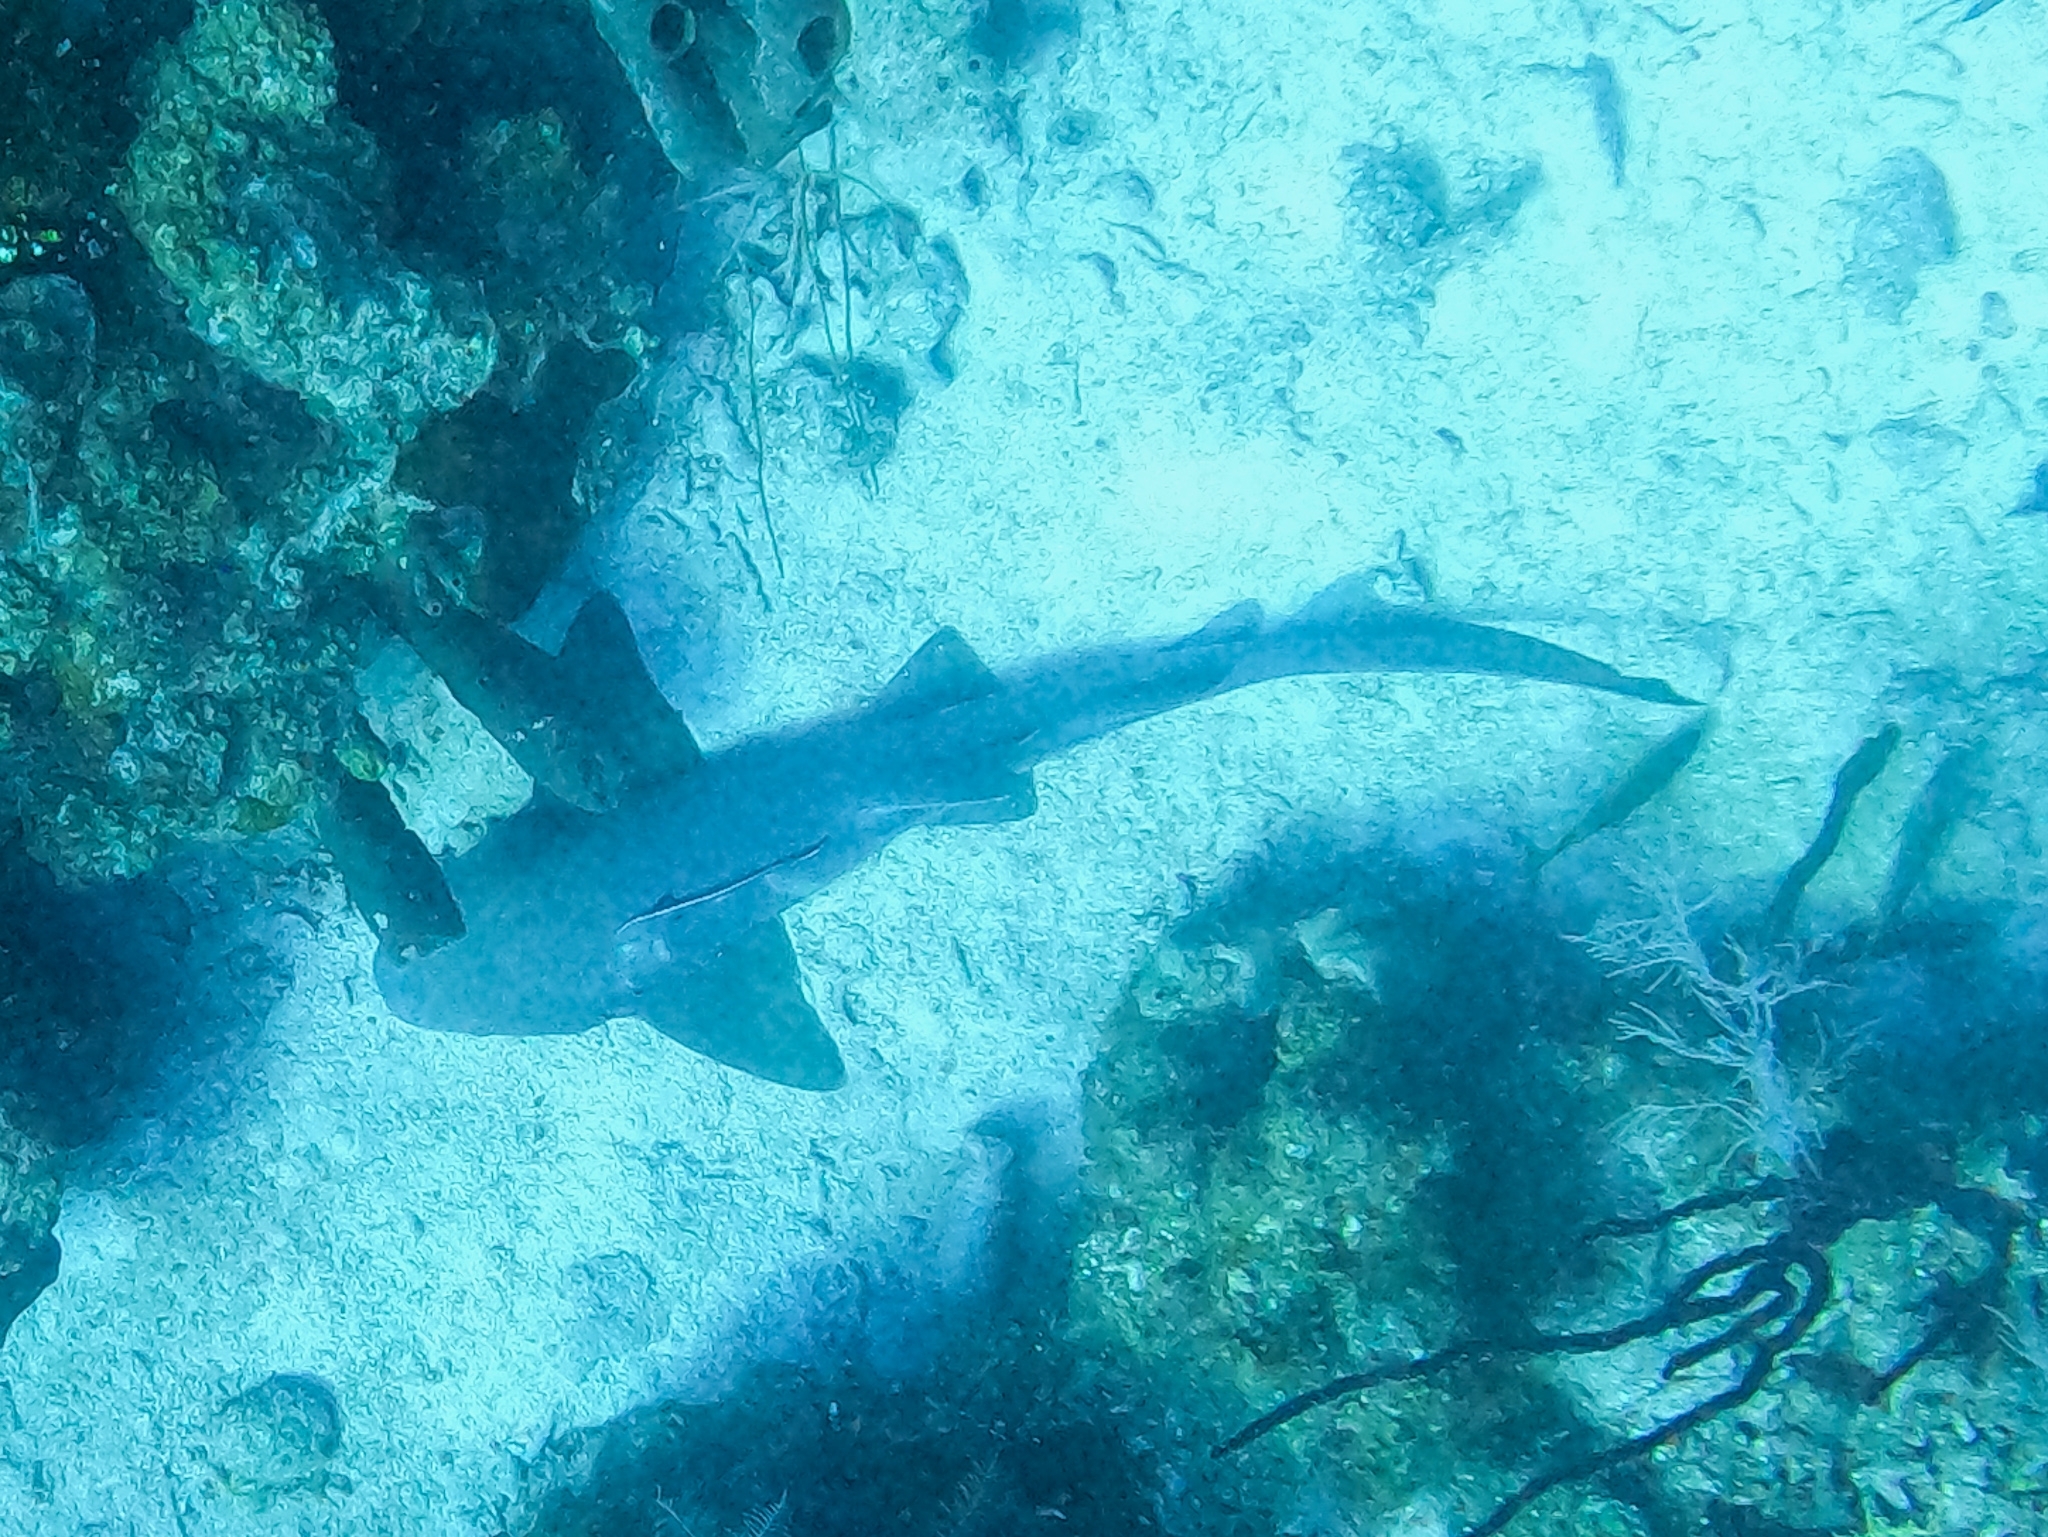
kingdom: Animalia
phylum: Chordata
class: Elasmobranchii
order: Orectolobiformes
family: Ginglymostomatidae
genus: Ginglymostoma
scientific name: Ginglymostoma cirratum
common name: Nurse shark
